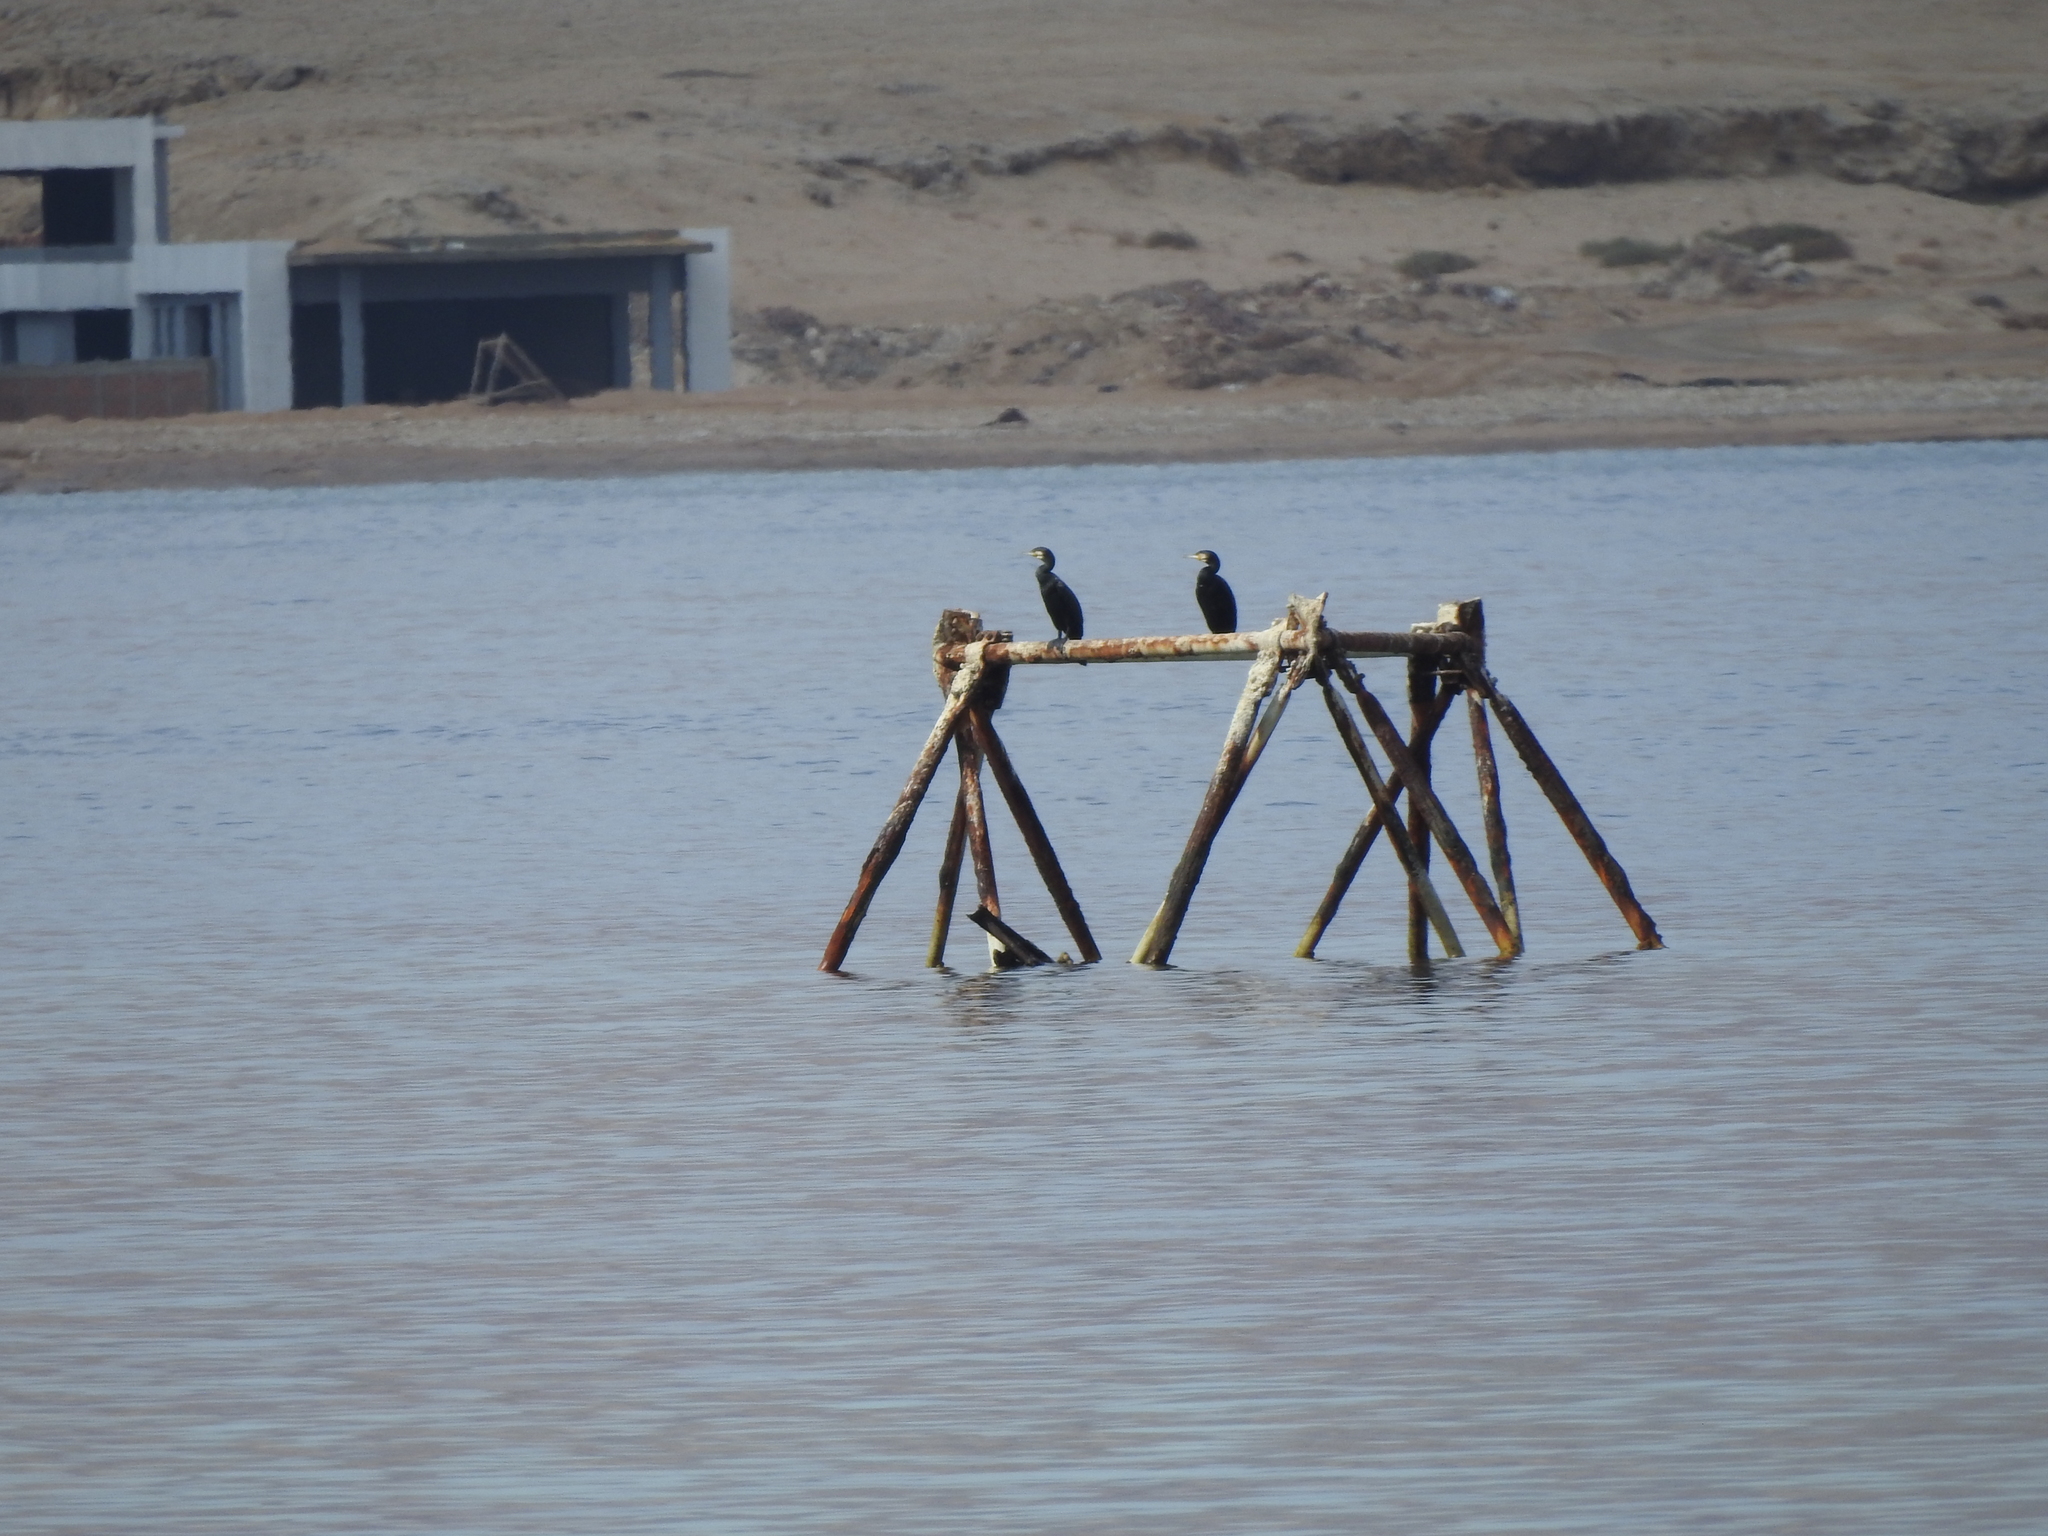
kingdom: Animalia
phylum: Chordata
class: Aves
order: Suliformes
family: Phalacrocoracidae
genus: Phalacrocorax
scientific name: Phalacrocorax carbo
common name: Great cormorant
